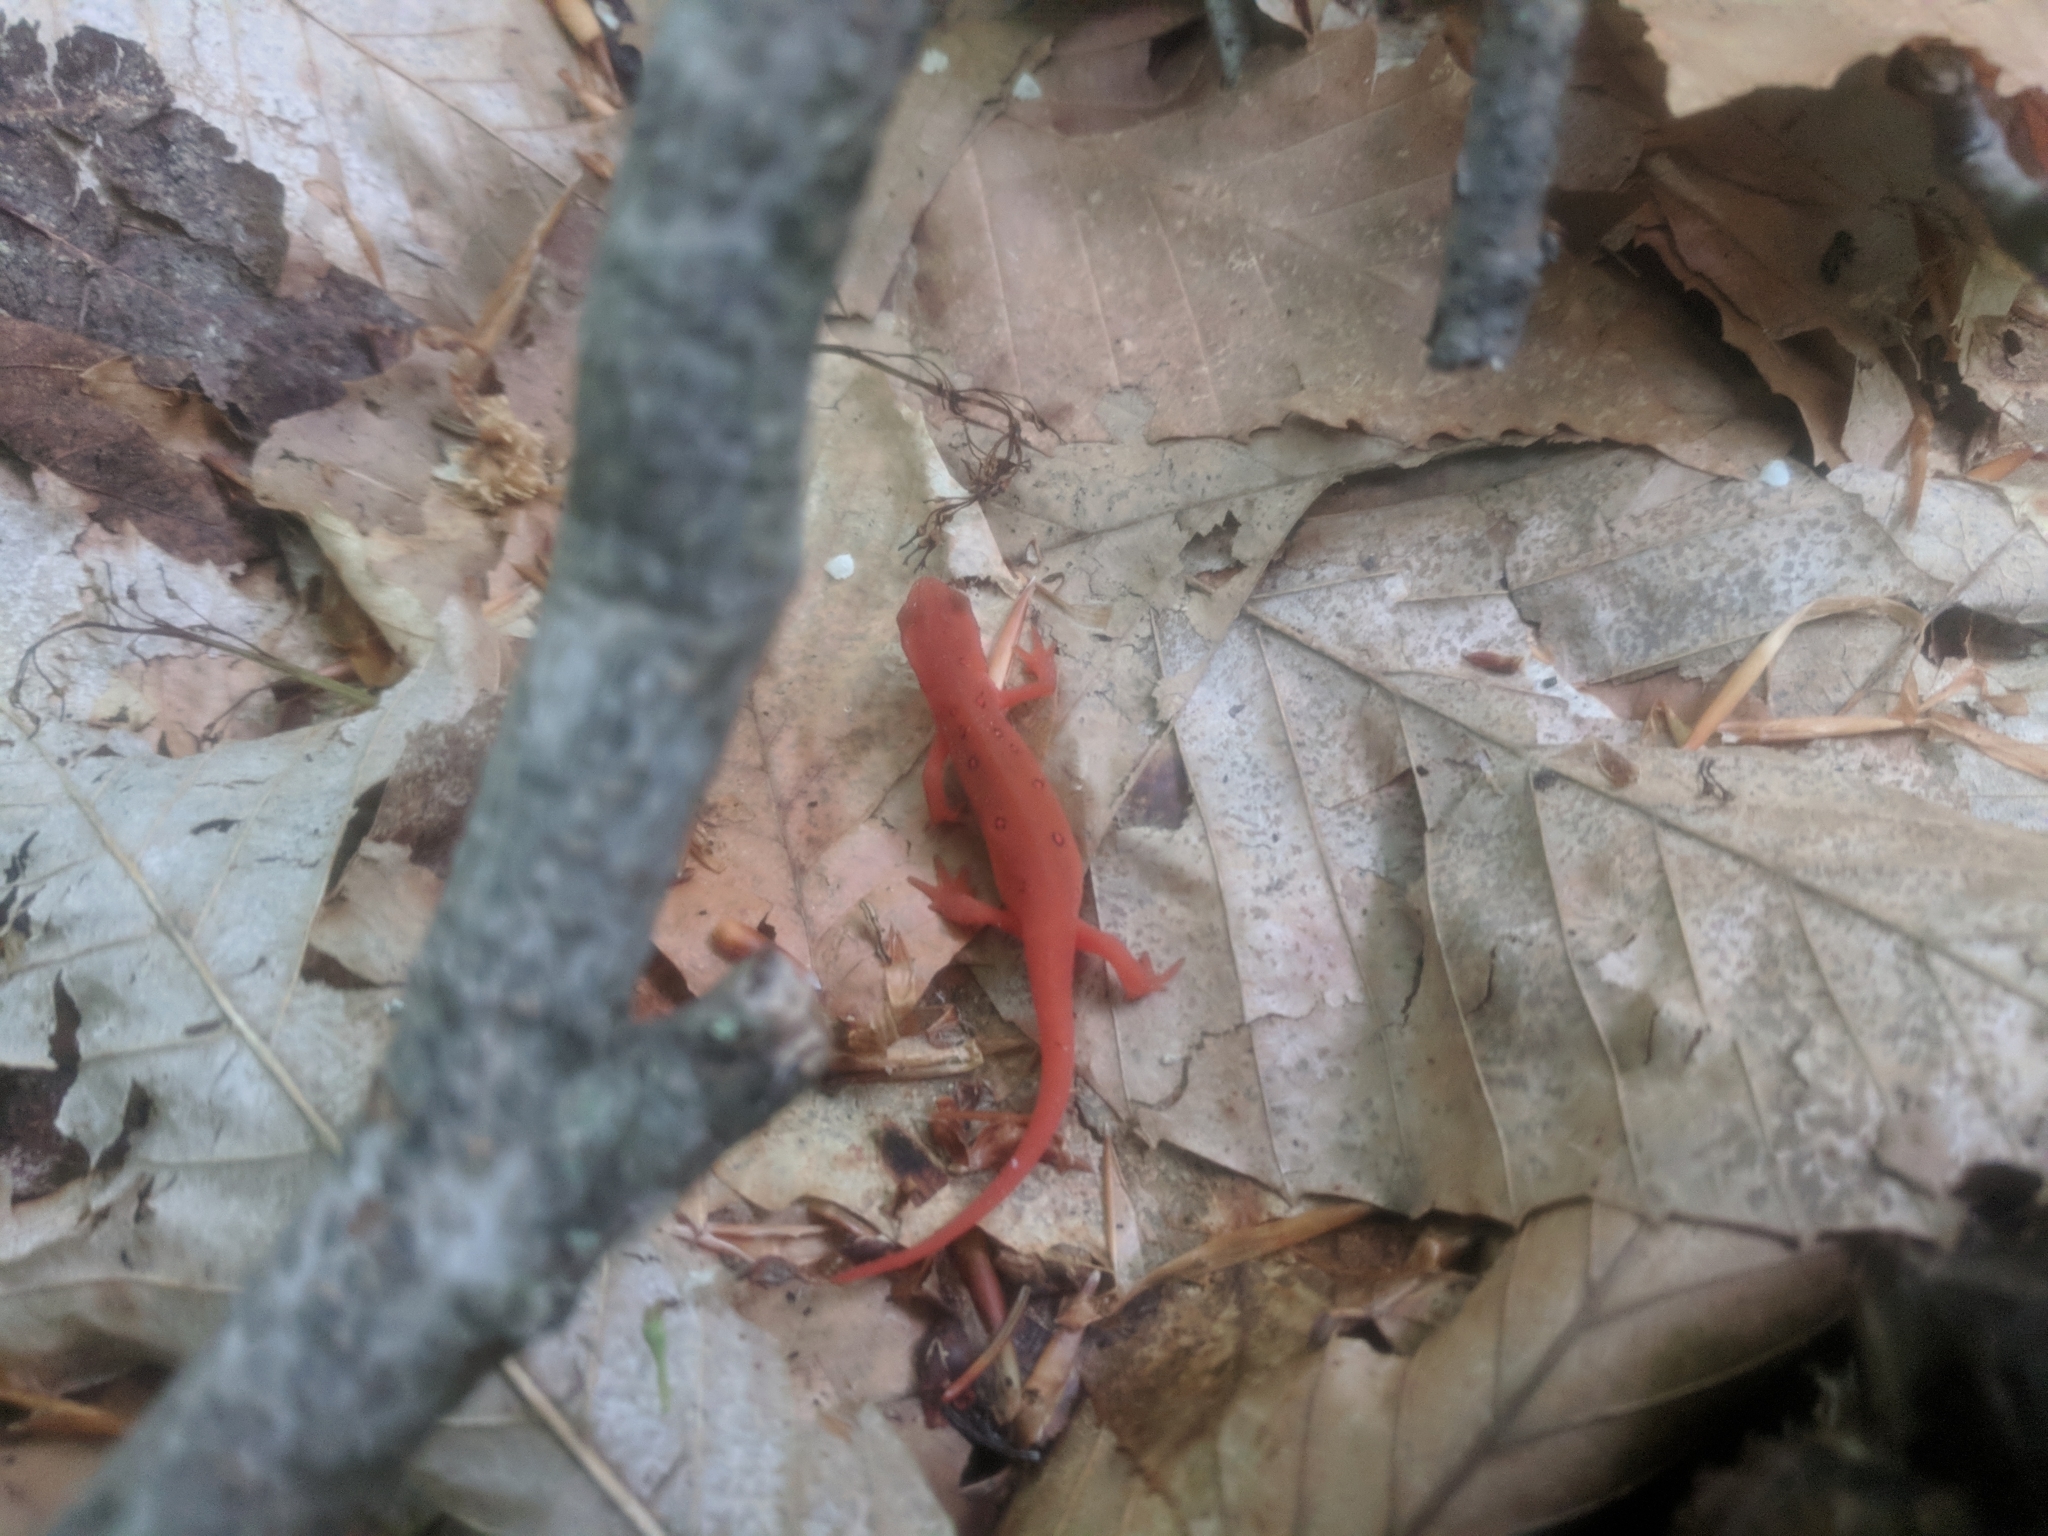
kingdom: Animalia
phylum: Chordata
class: Amphibia
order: Caudata
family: Salamandridae
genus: Notophthalmus
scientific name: Notophthalmus viridescens
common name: Eastern newt
